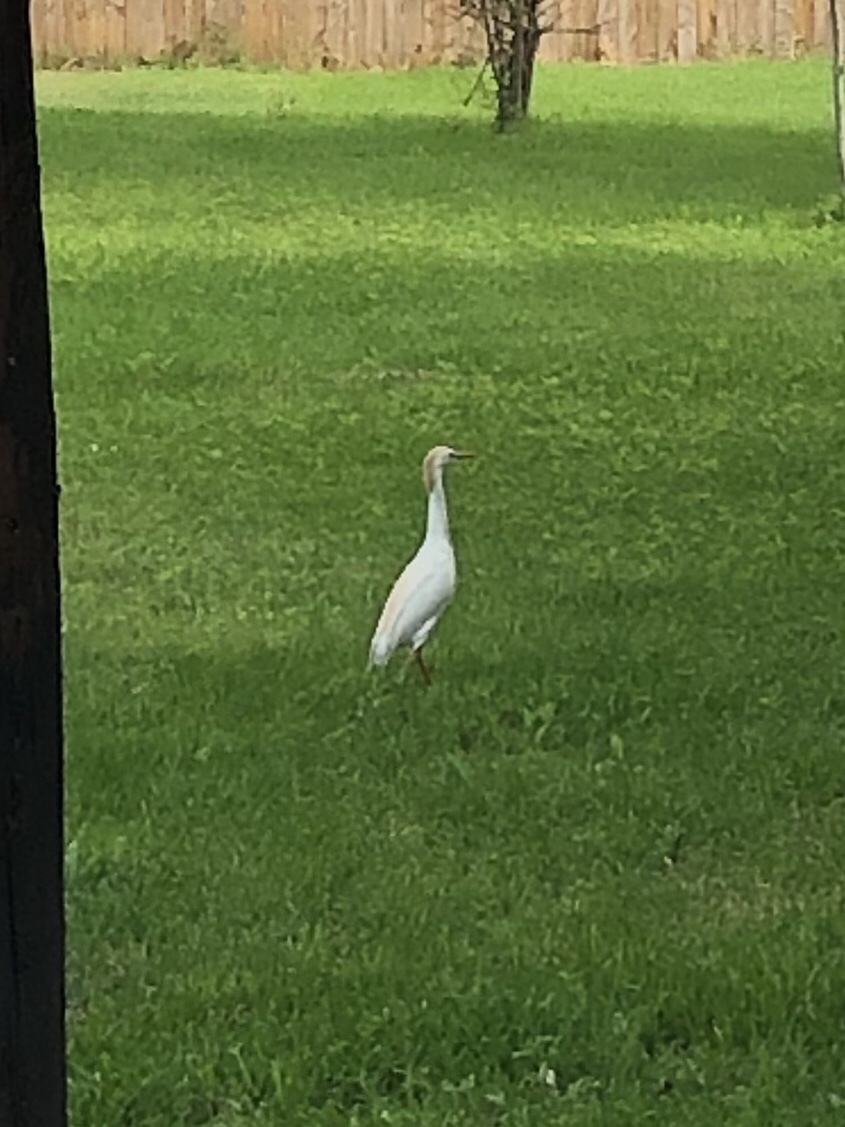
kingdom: Animalia
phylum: Chordata
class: Aves
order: Pelecaniformes
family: Ardeidae
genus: Bubulcus
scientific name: Bubulcus ibis
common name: Cattle egret
